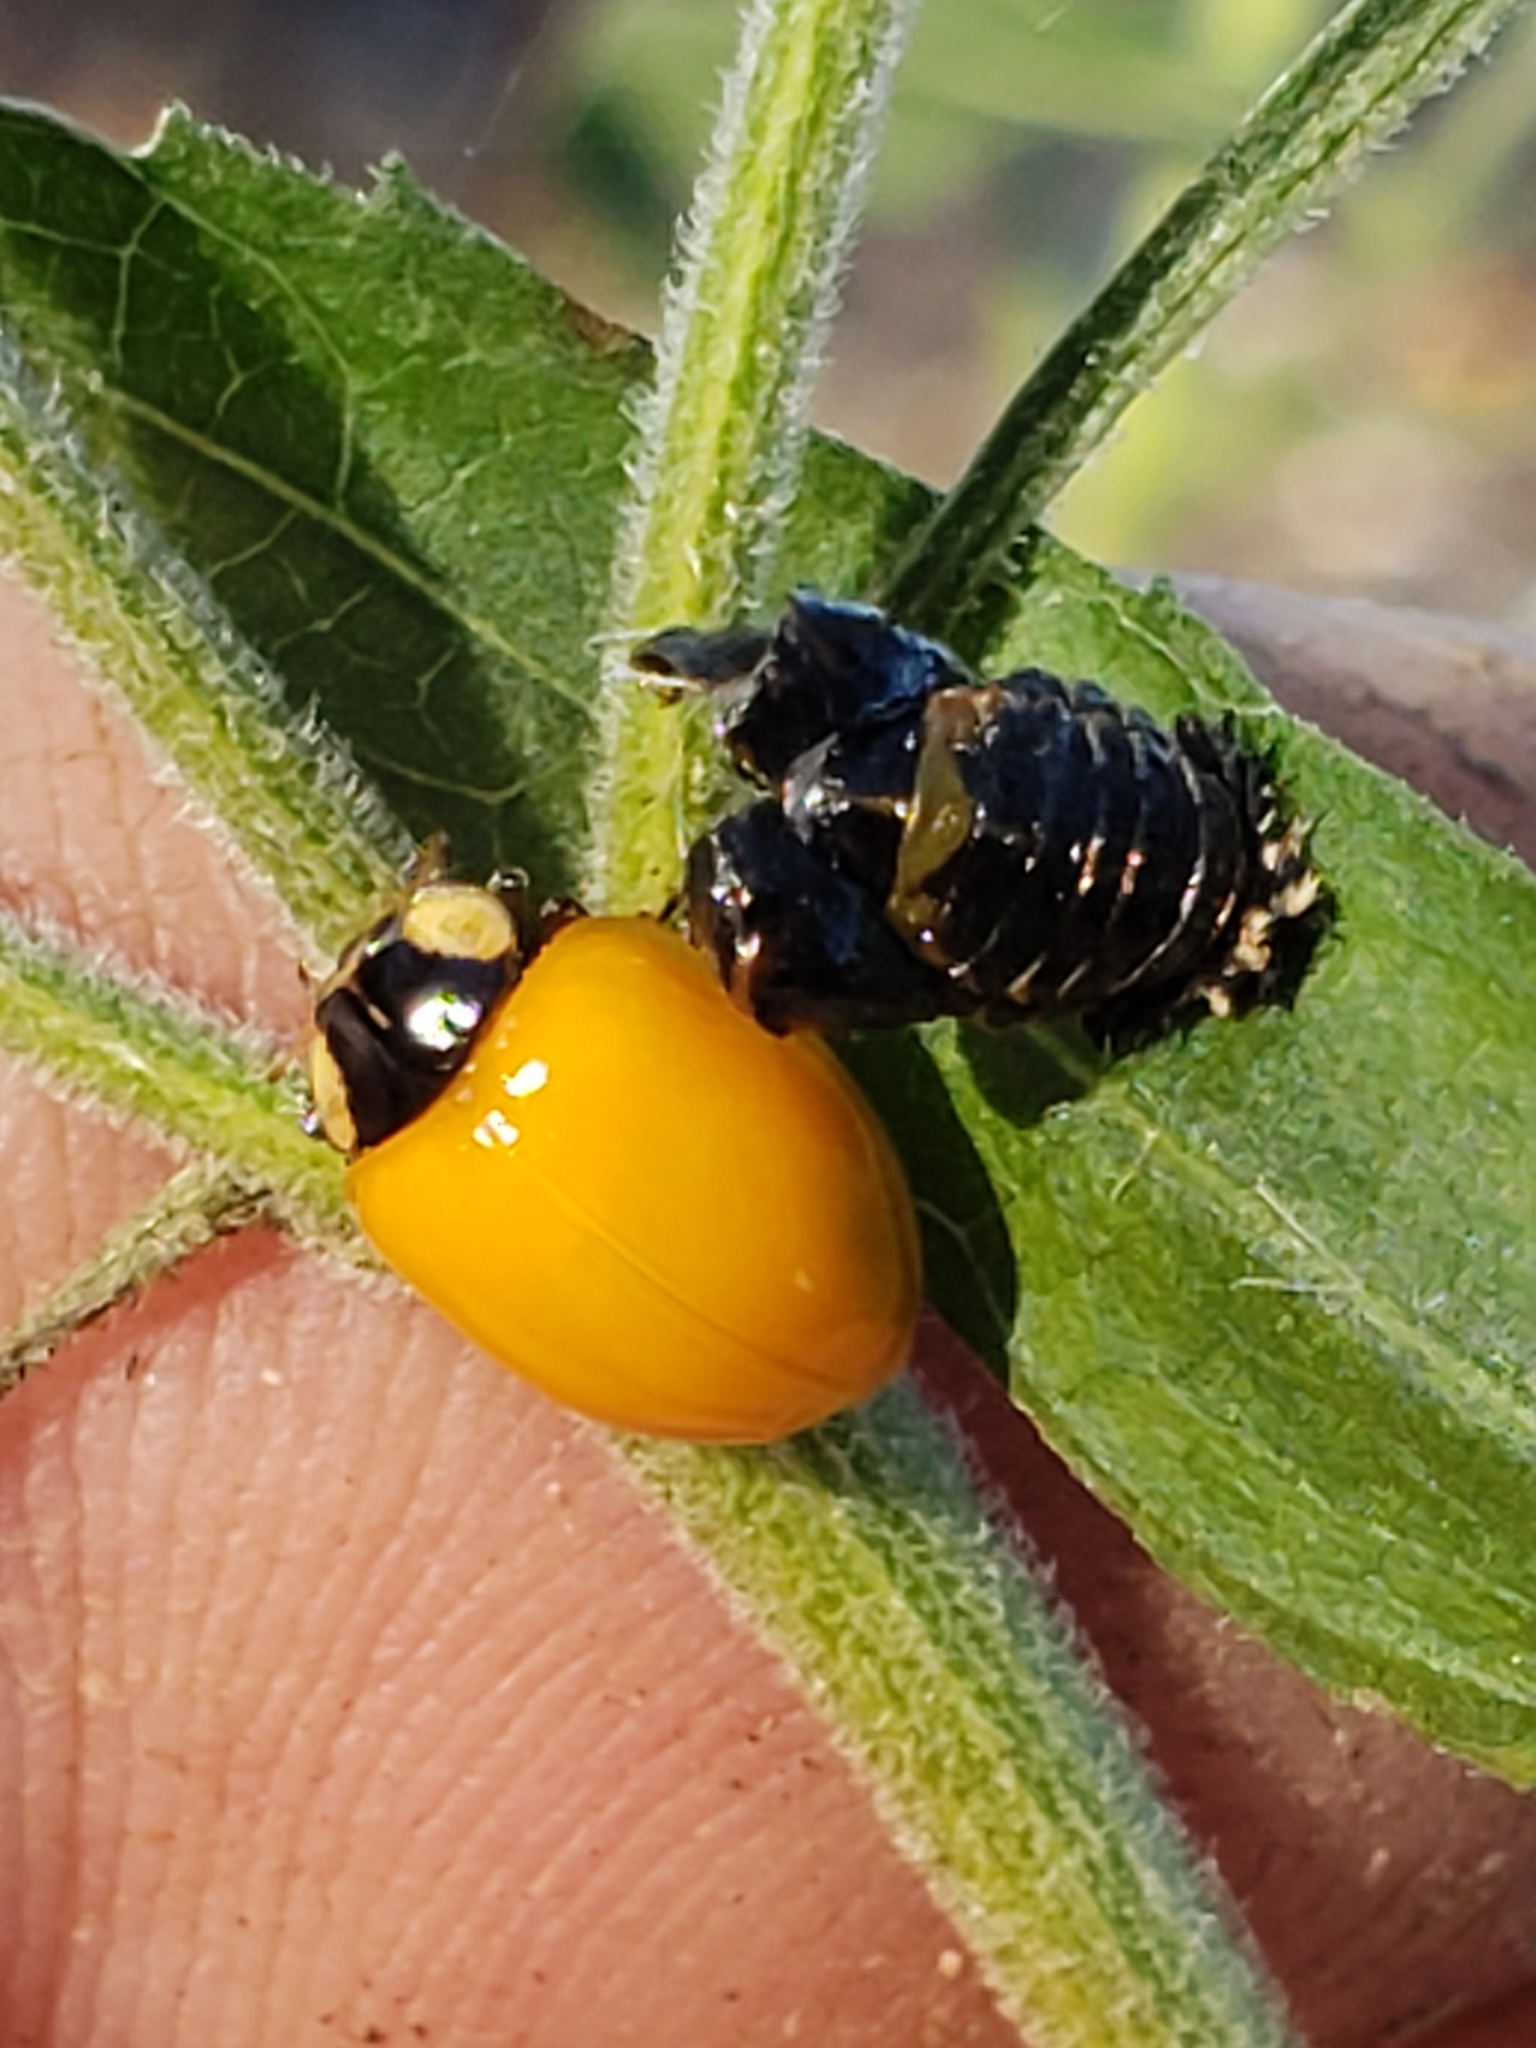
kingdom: Animalia
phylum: Arthropoda
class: Insecta
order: Coleoptera
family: Coccinellidae
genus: Harmonia
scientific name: Harmonia axyridis
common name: Harlequin ladybird
